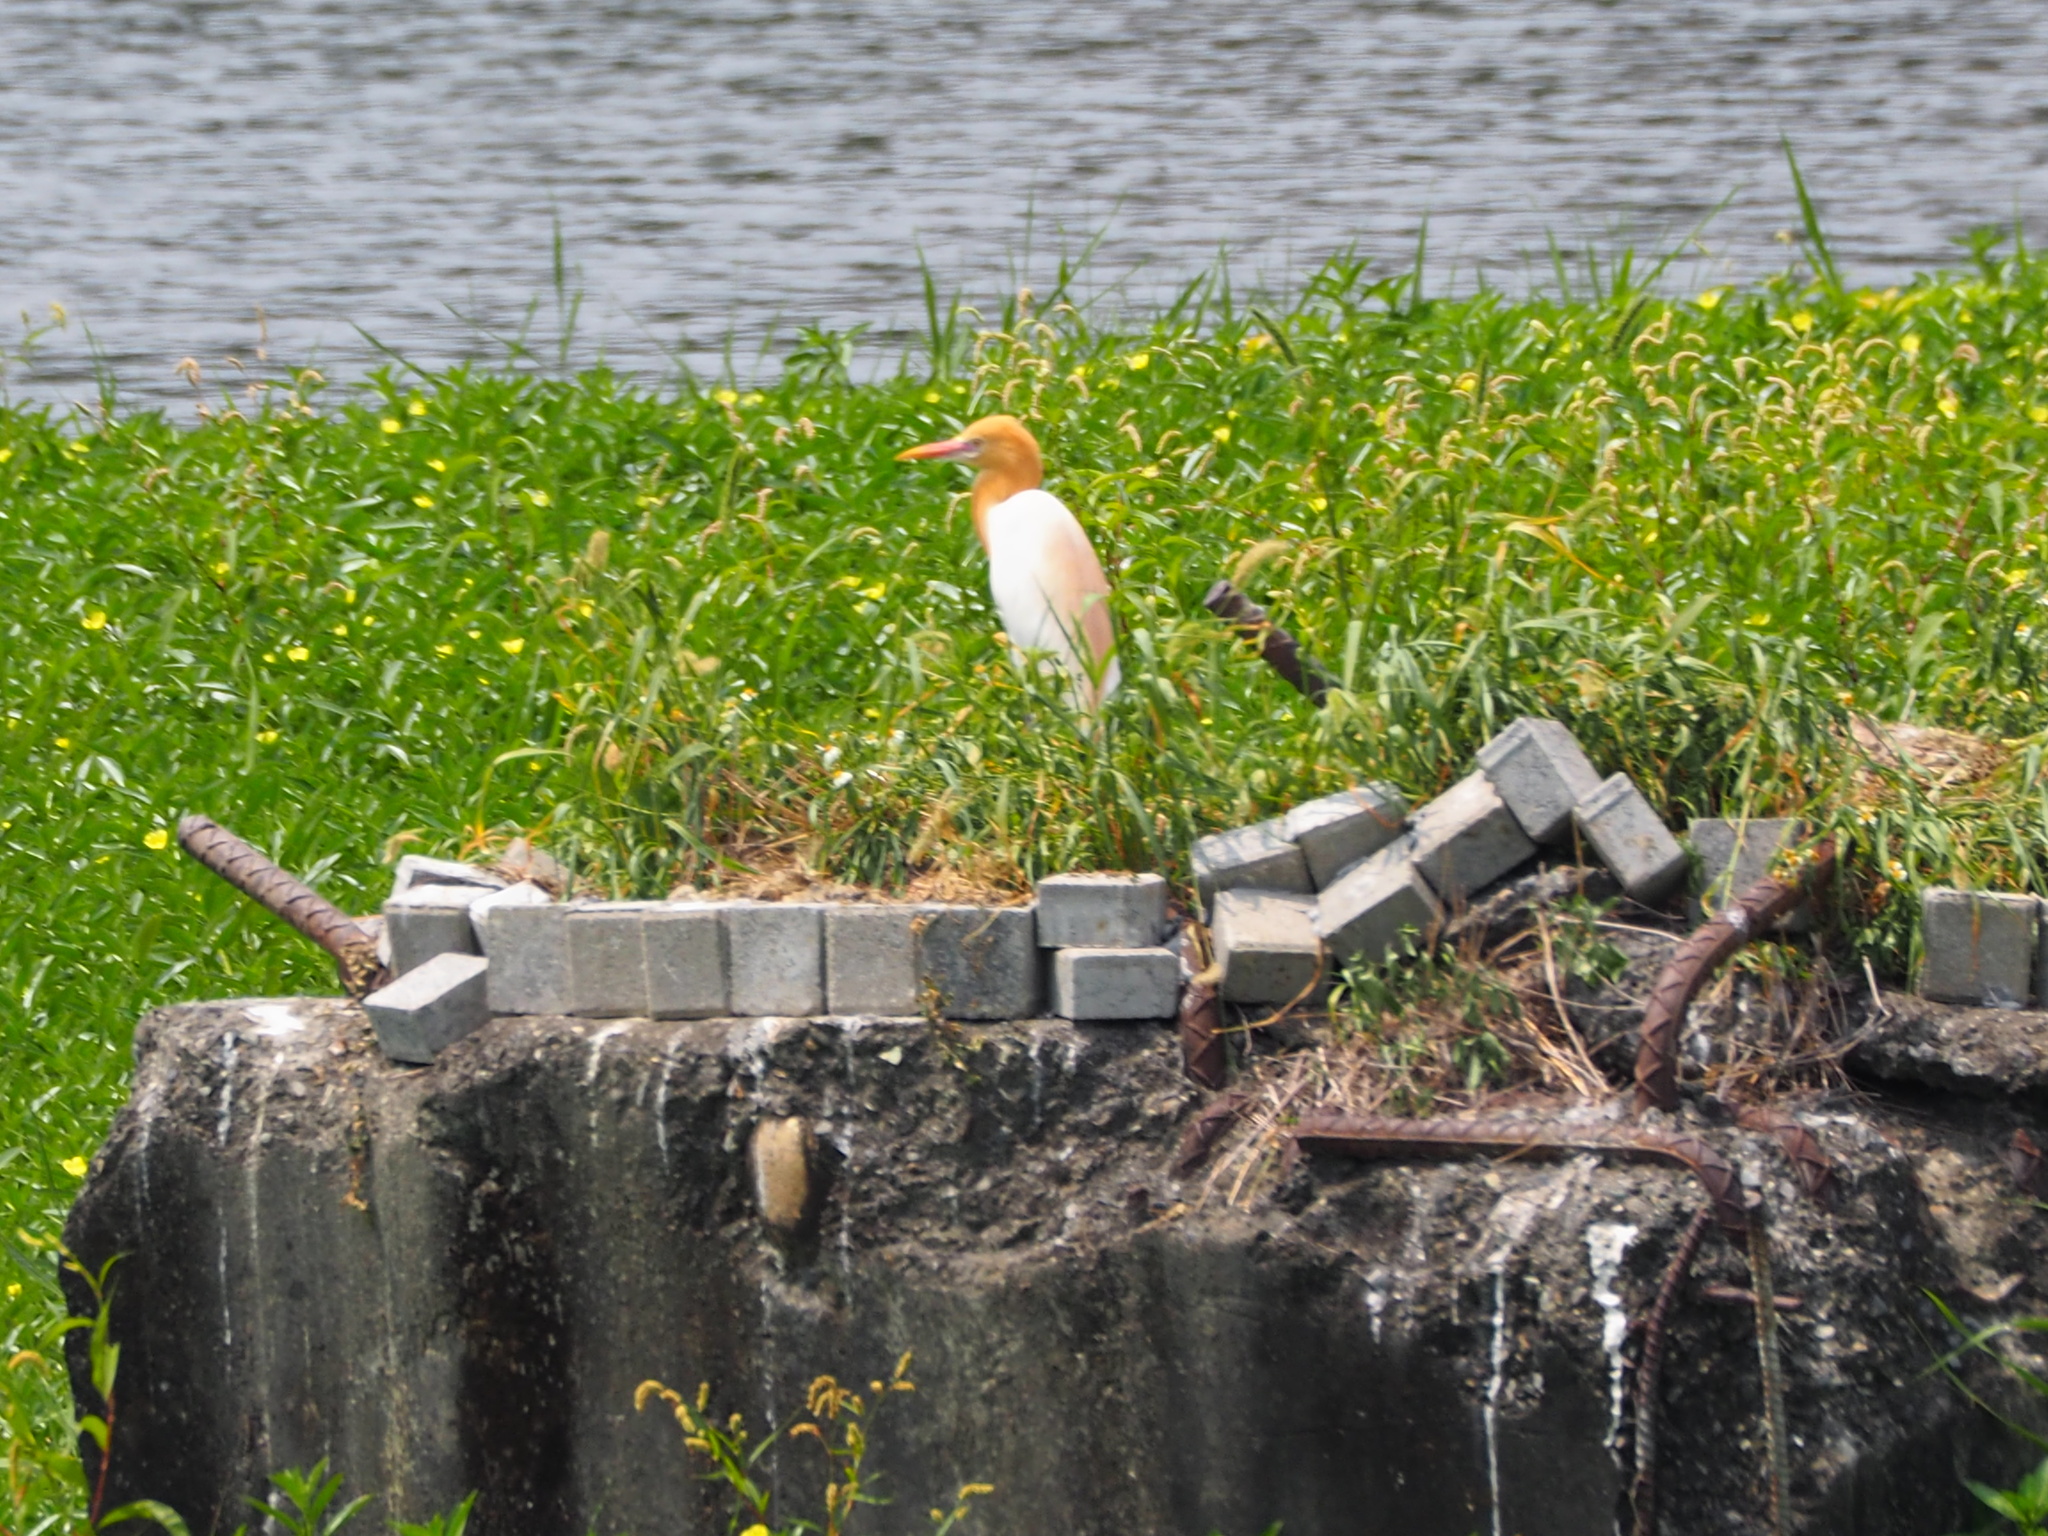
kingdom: Animalia
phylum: Chordata
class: Aves
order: Pelecaniformes
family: Ardeidae
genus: Bubulcus
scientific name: Bubulcus coromandus
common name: Eastern cattle egret
